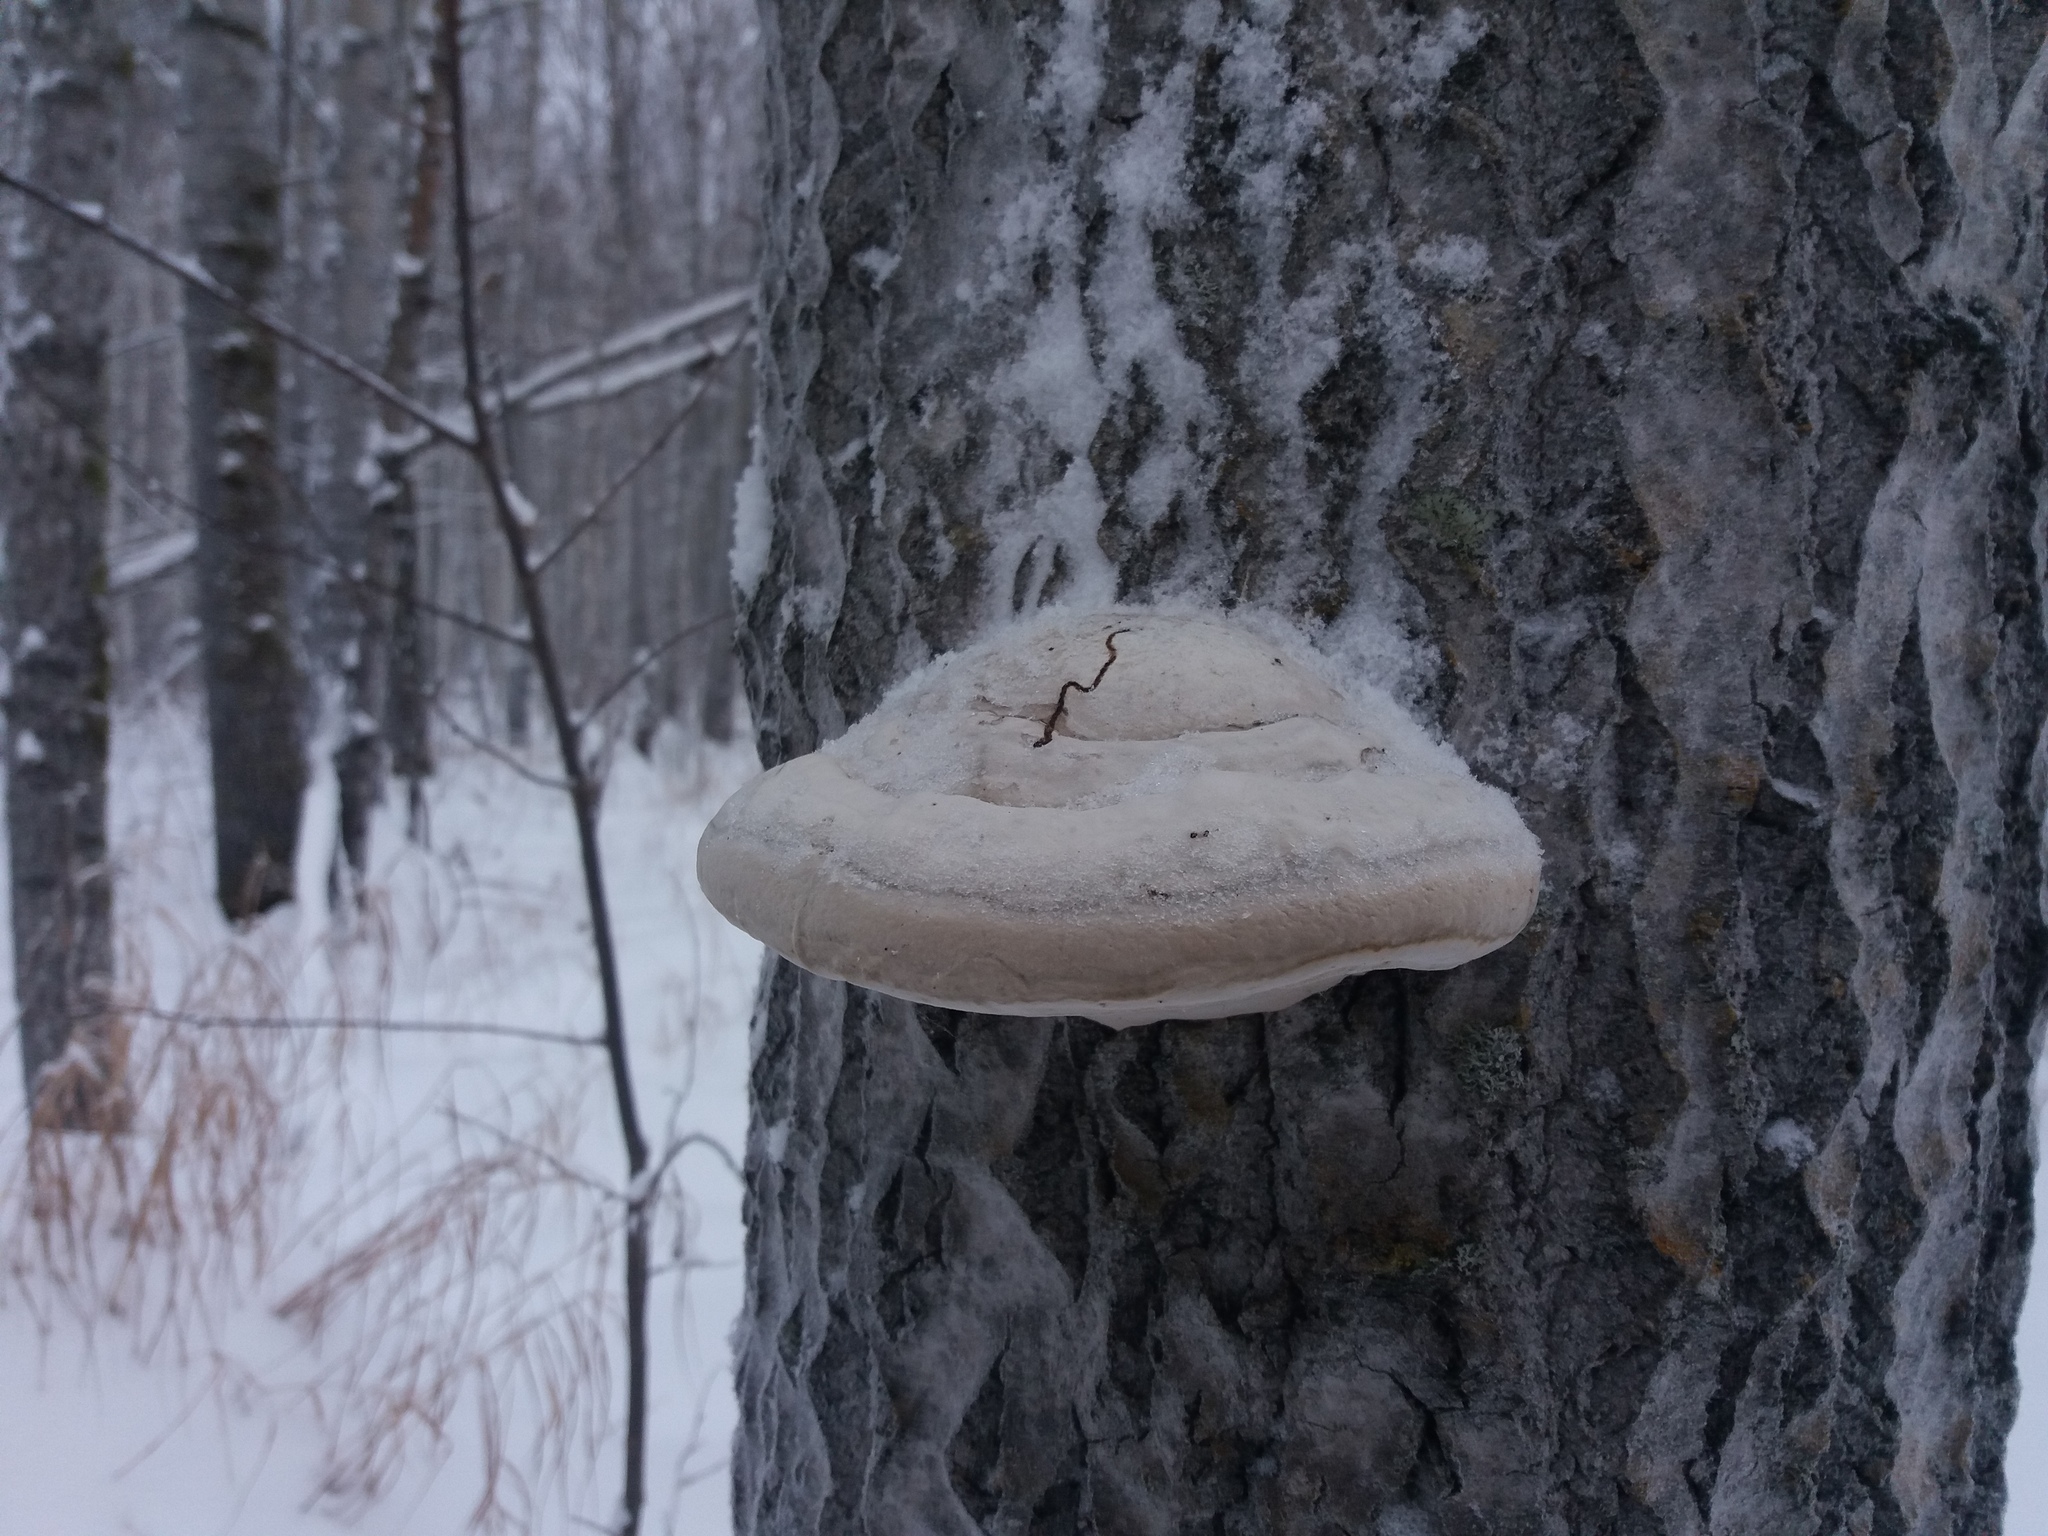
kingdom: Fungi
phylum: Basidiomycota
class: Agaricomycetes
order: Polyporales
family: Polyporaceae
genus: Fomes
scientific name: Fomes fomentarius
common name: Hoof fungus
